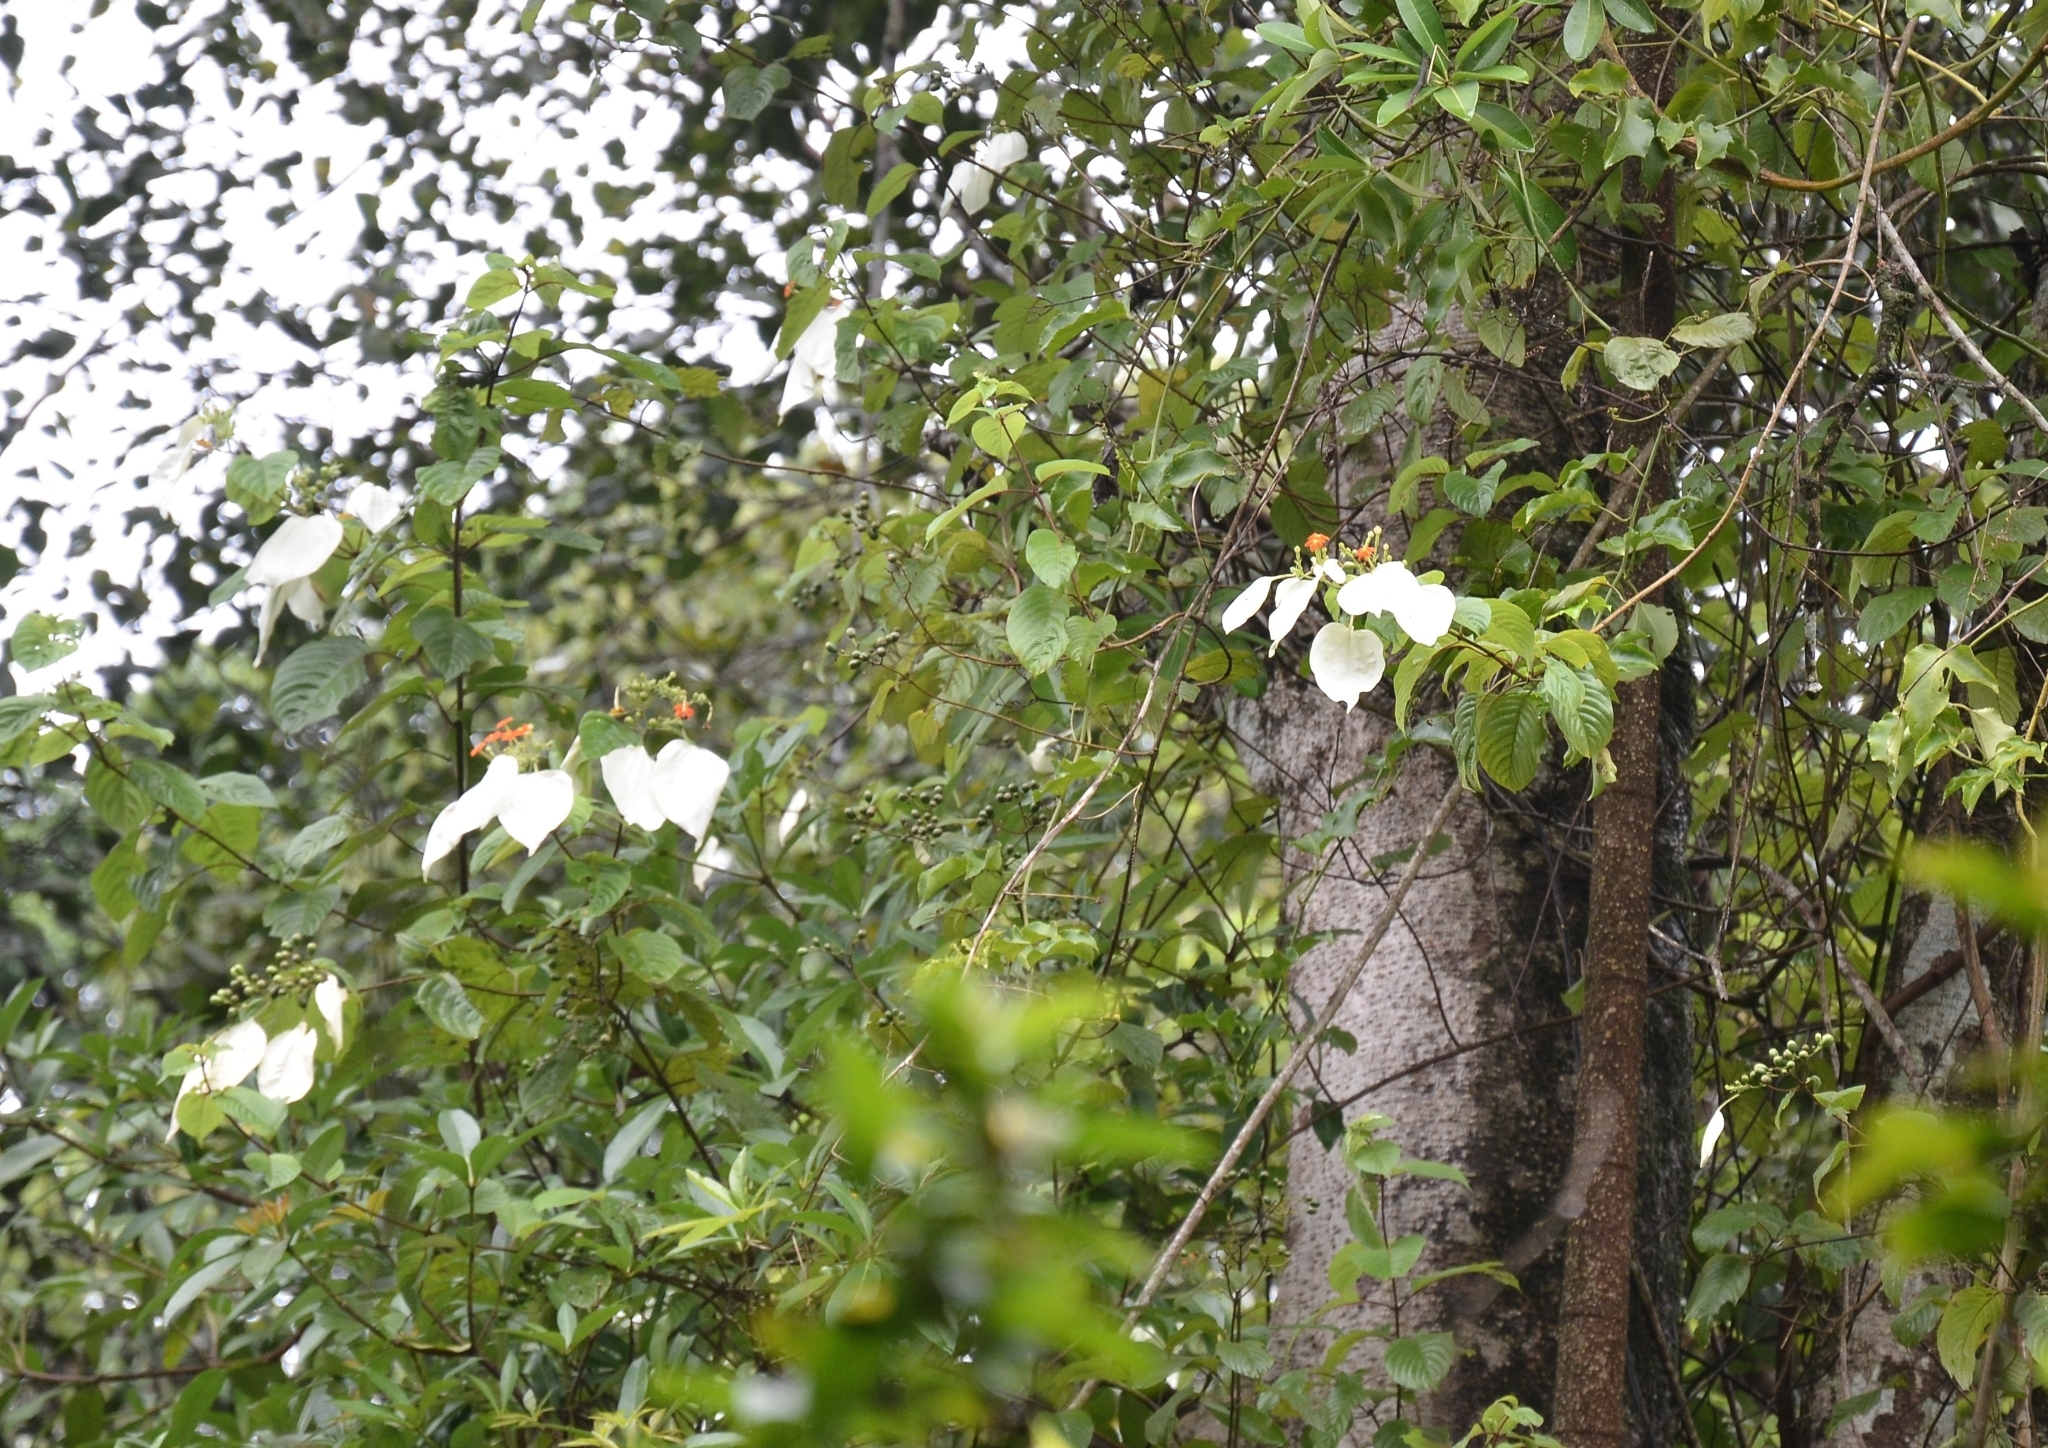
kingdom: Plantae
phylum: Tracheophyta
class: Magnoliopsida
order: Gentianales
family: Rubiaceae
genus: Mussaenda
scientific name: Mussaenda
